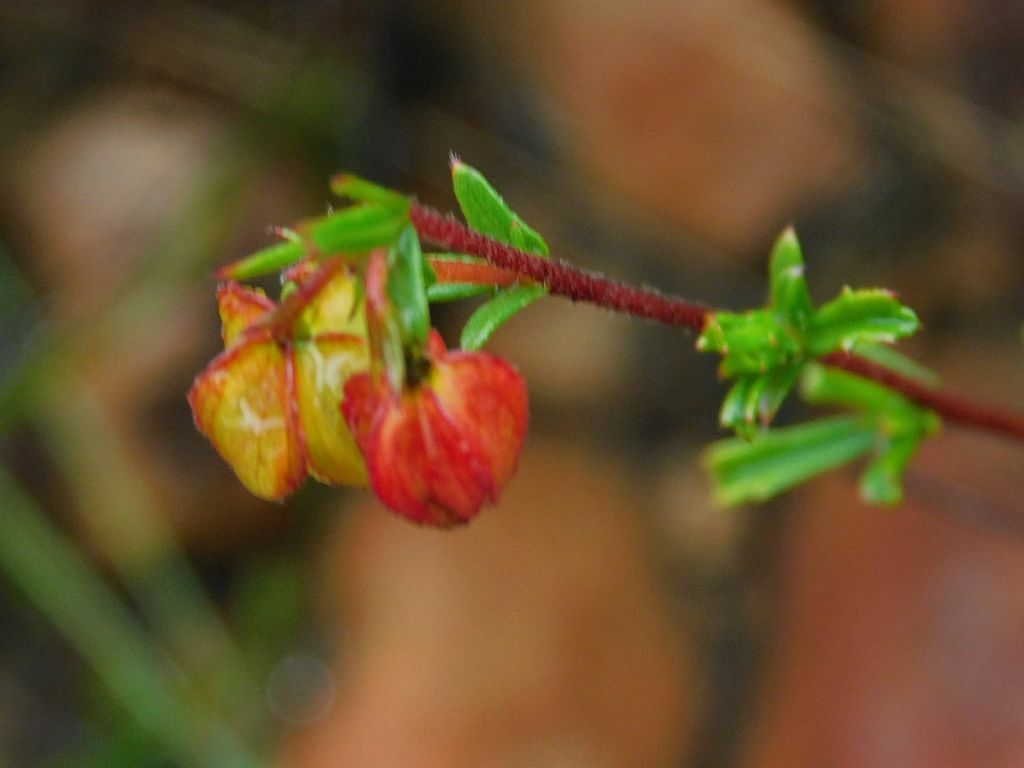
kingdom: Plantae
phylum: Tracheophyta
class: Magnoliopsida
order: Malvales
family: Malvaceae
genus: Hermannia
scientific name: Hermannia angularis
